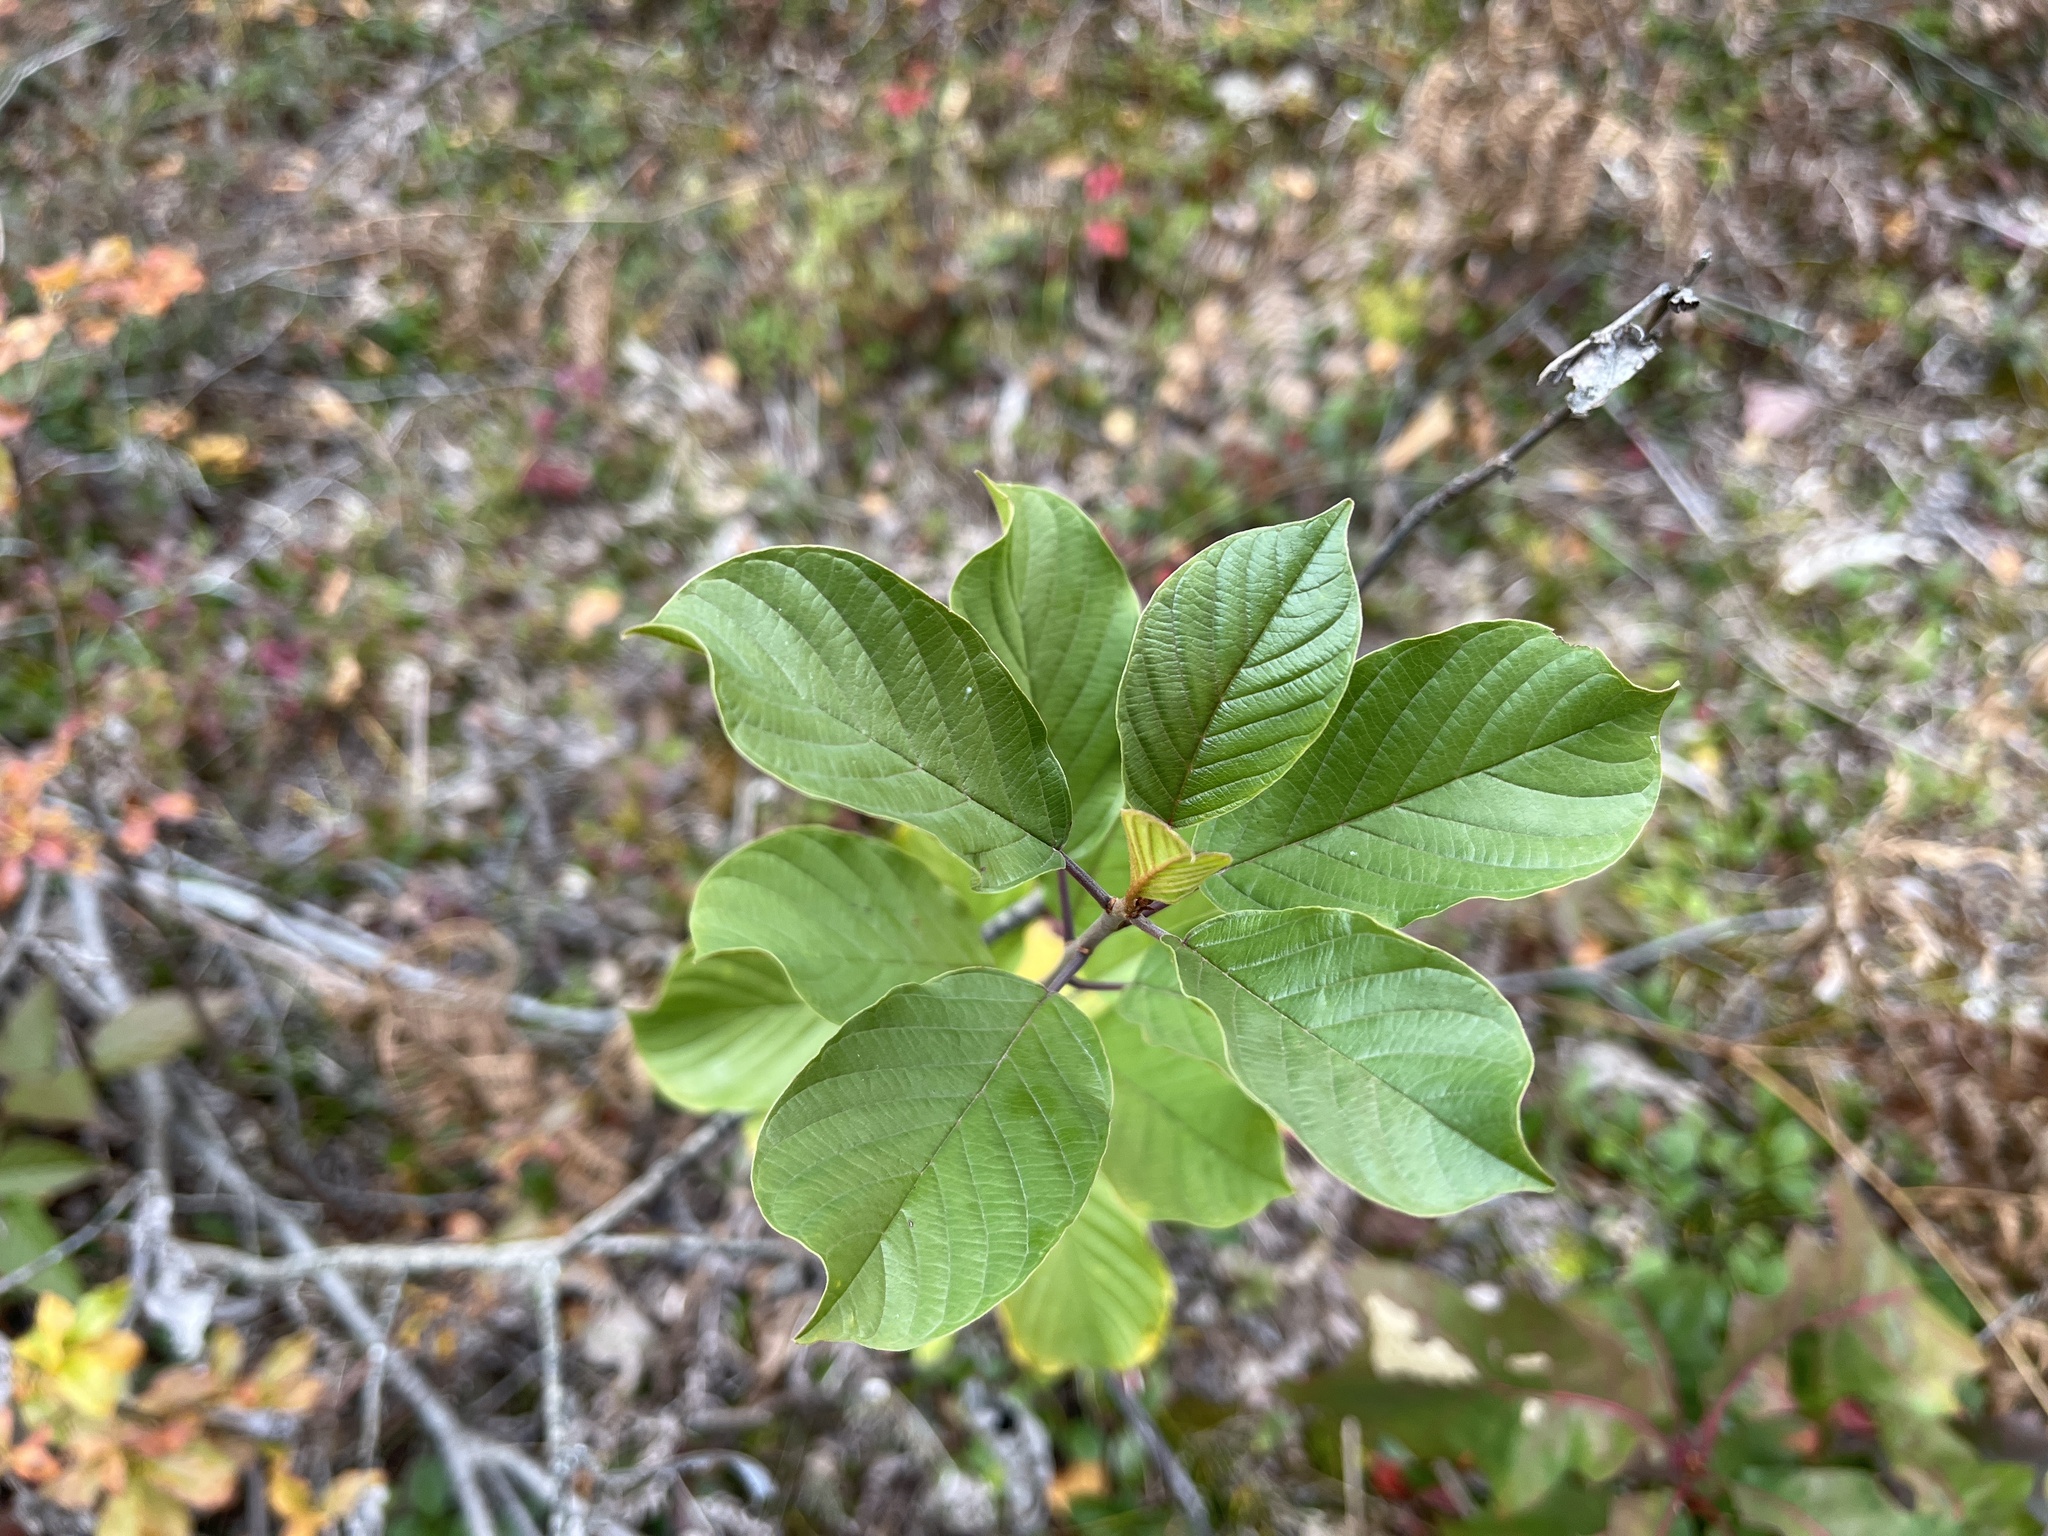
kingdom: Plantae
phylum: Tracheophyta
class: Magnoliopsida
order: Rosales
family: Rhamnaceae
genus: Frangula
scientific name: Frangula alnus
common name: Alder buckthorn
